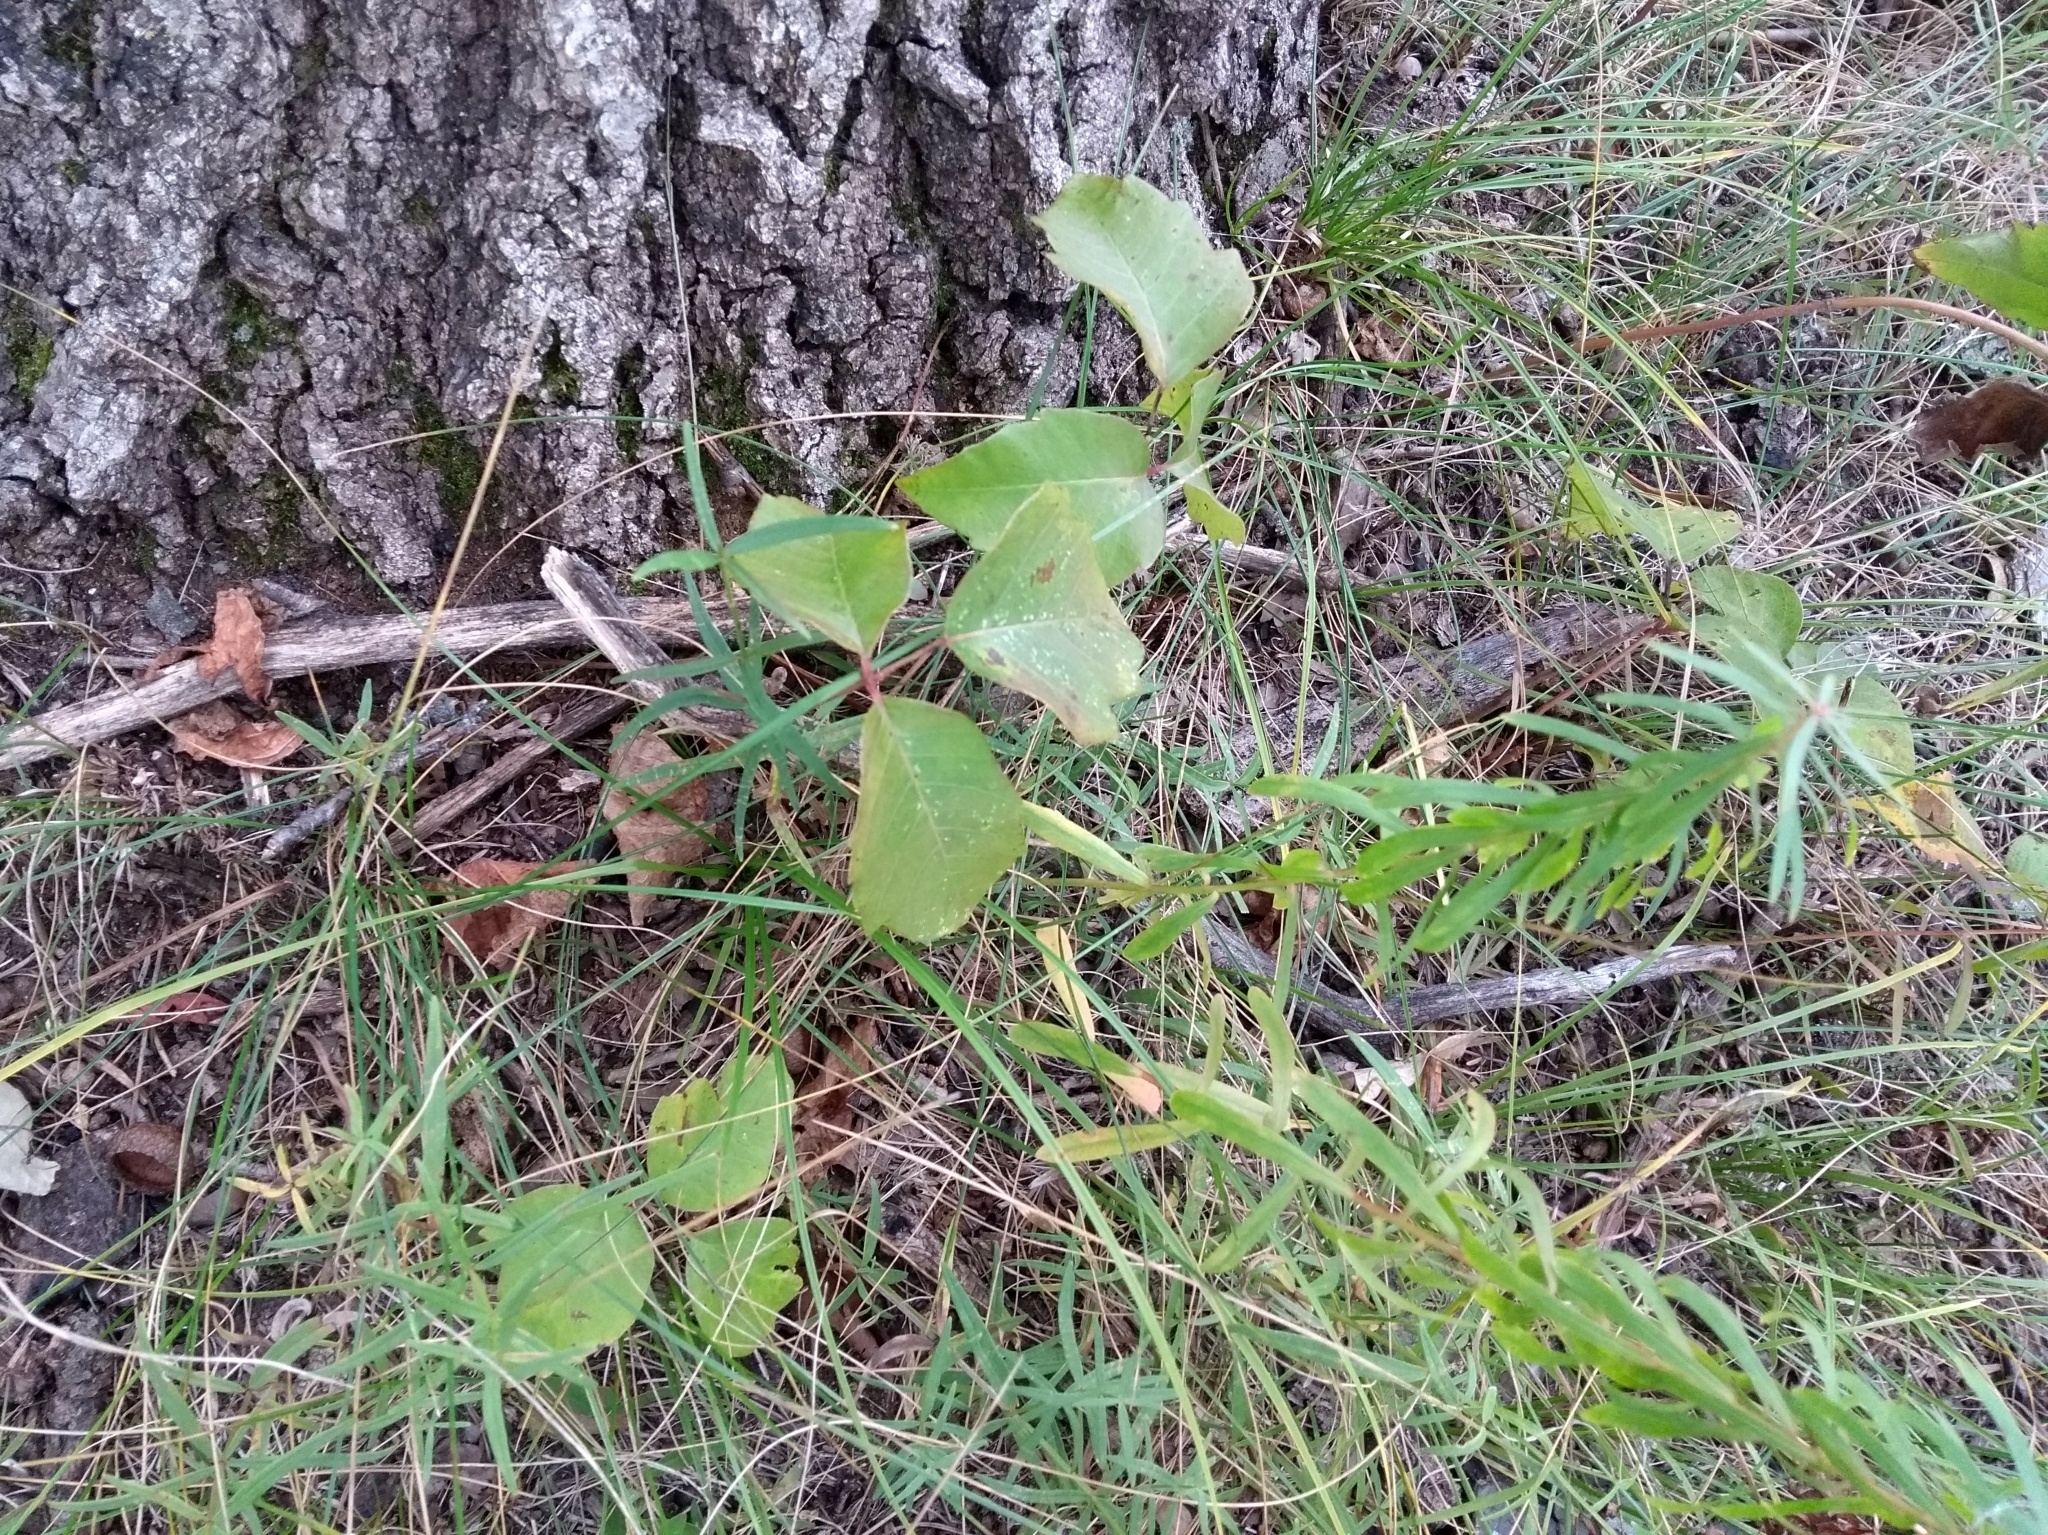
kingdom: Plantae
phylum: Tracheophyta
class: Magnoliopsida
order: Sapindales
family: Anacardiaceae
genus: Toxicodendron
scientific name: Toxicodendron rydbergii
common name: Rydberg's poison-ivy
